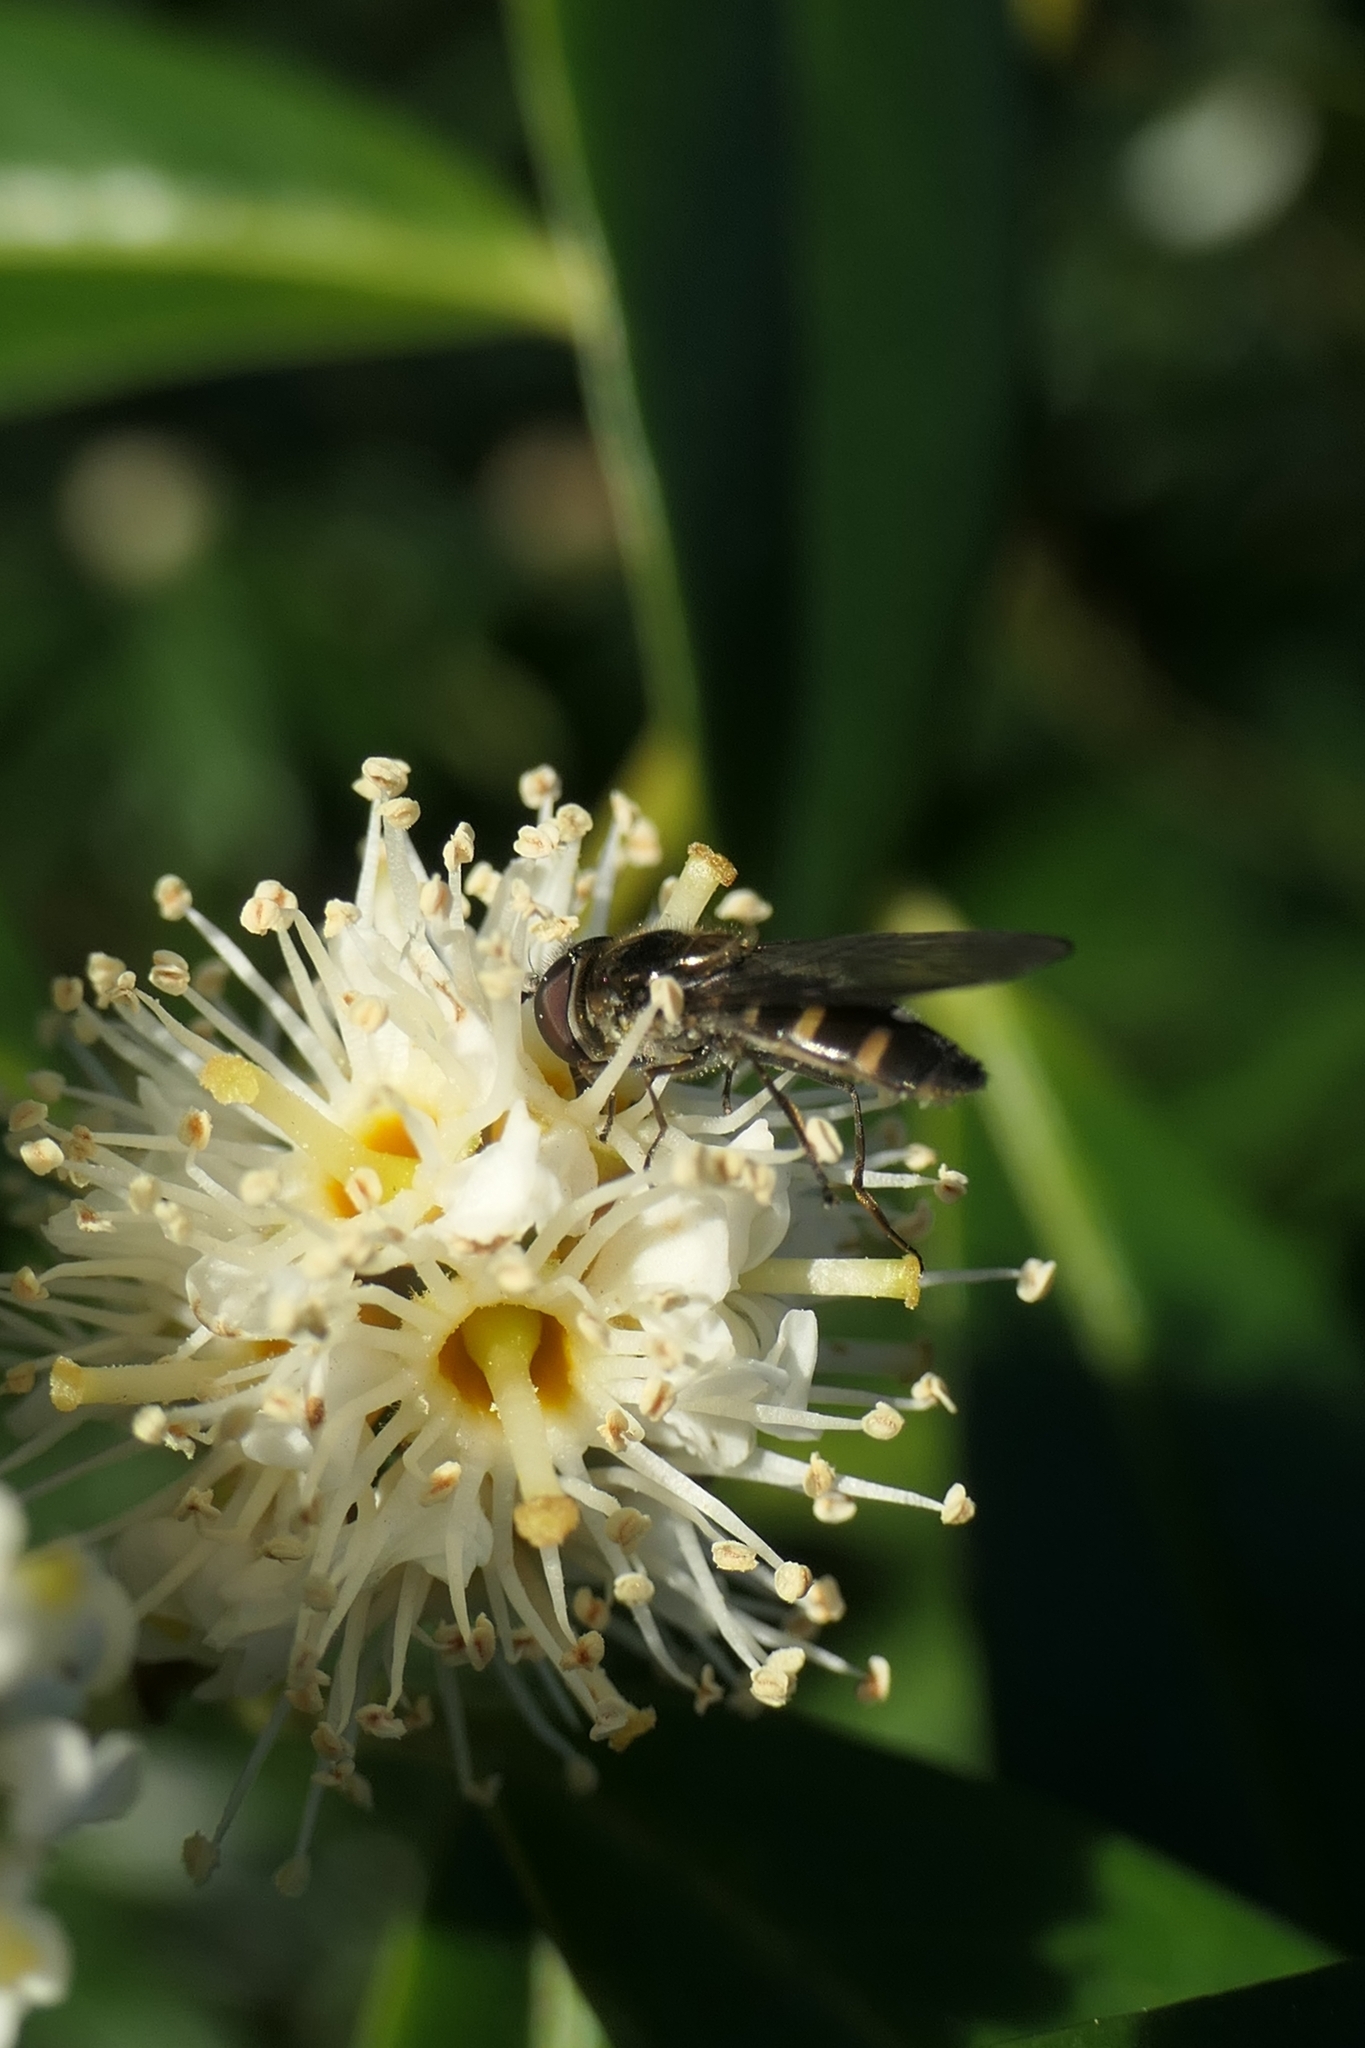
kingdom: Animalia
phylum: Arthropoda
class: Insecta
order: Diptera
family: Syrphidae
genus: Melangyna
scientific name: Melangyna novaezelandiae
